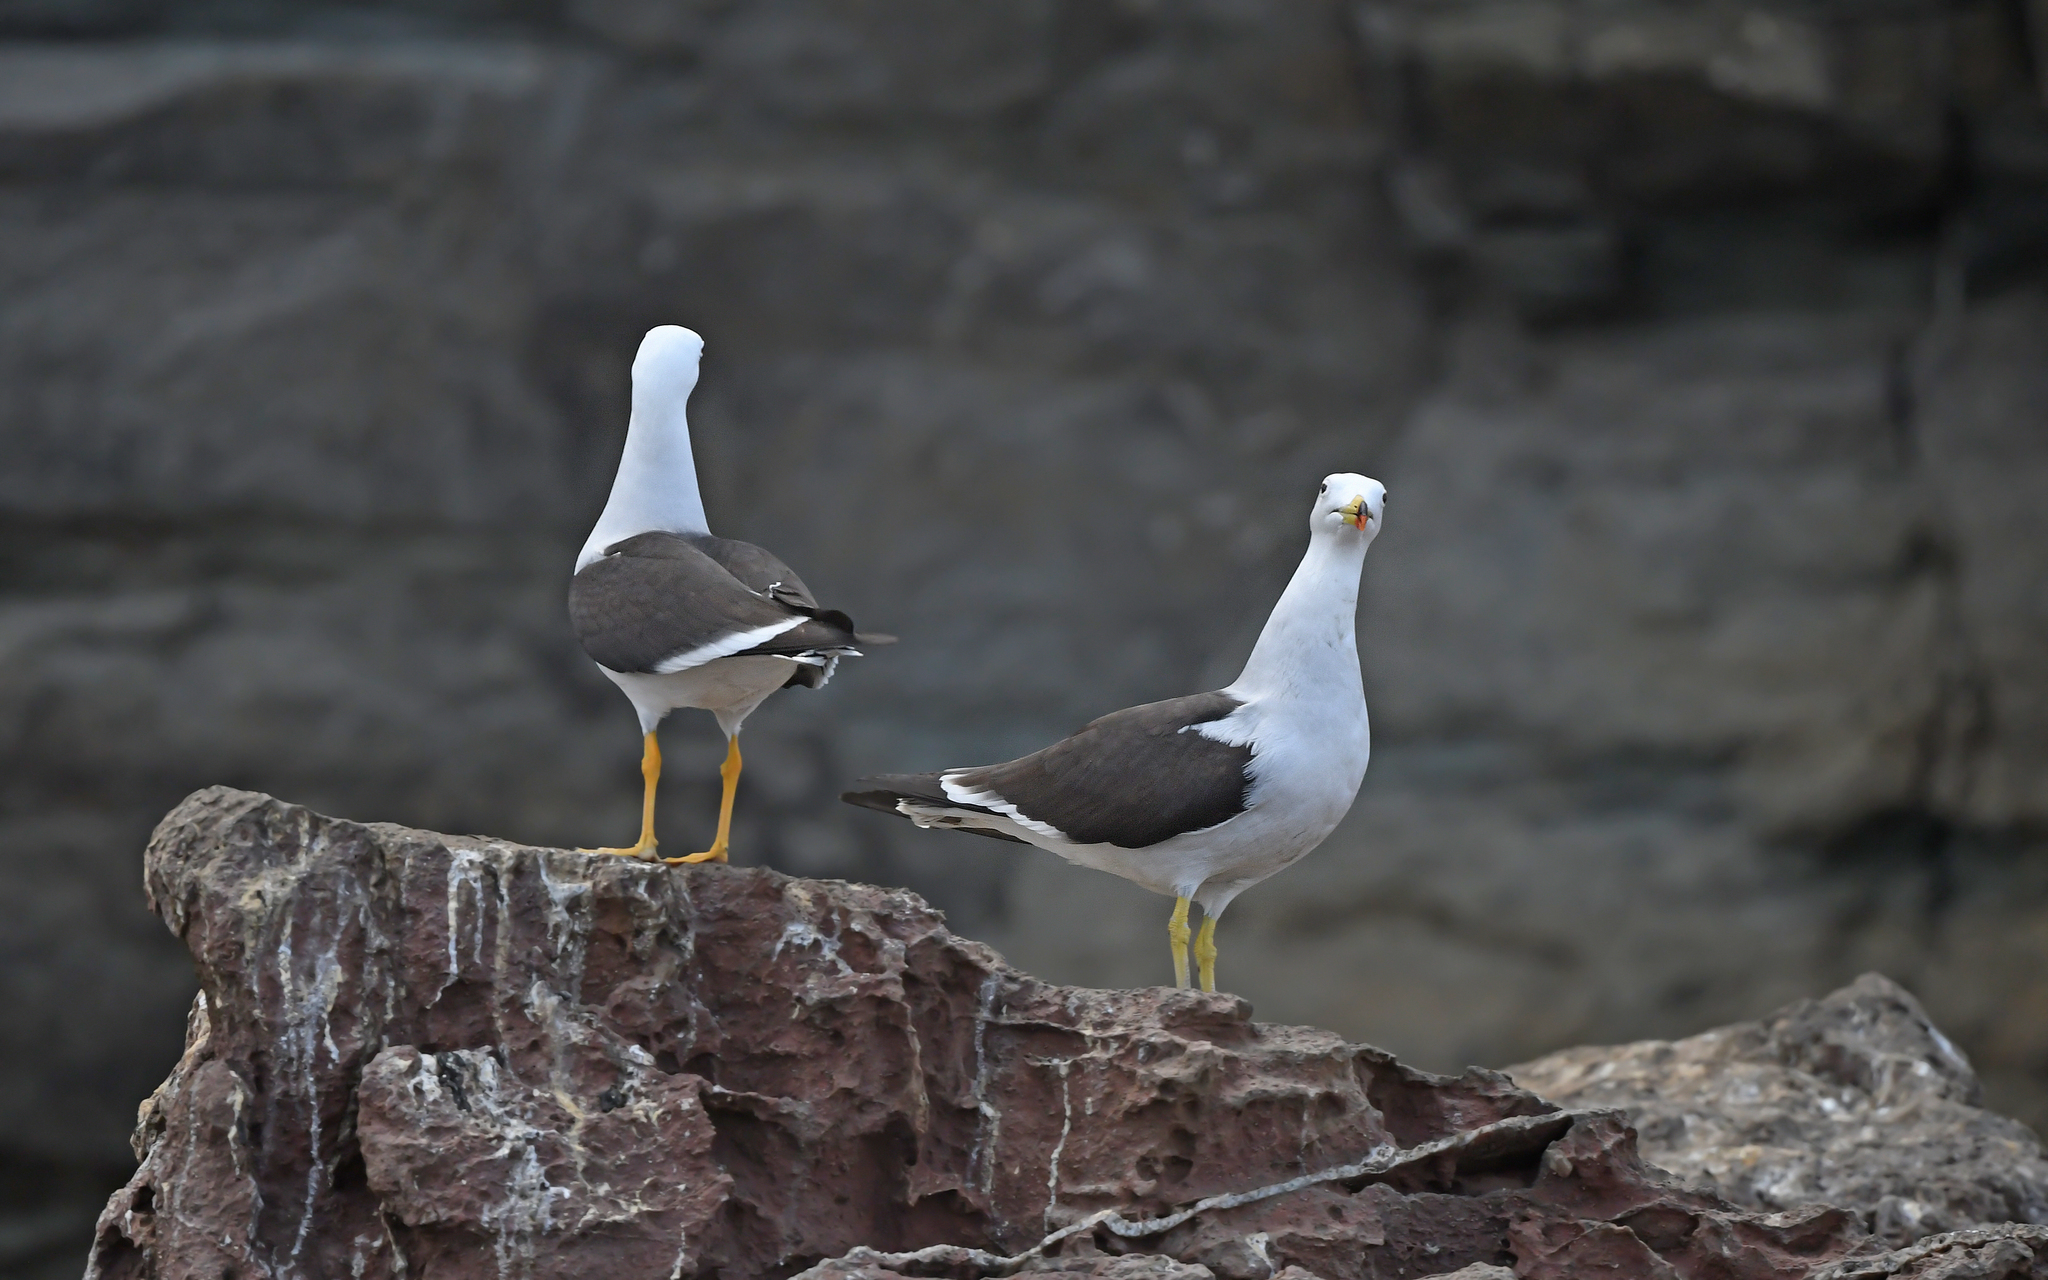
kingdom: Animalia
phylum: Chordata
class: Aves
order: Charadriiformes
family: Laridae
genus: Larus
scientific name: Larus belcheri
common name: Belcher's gull
